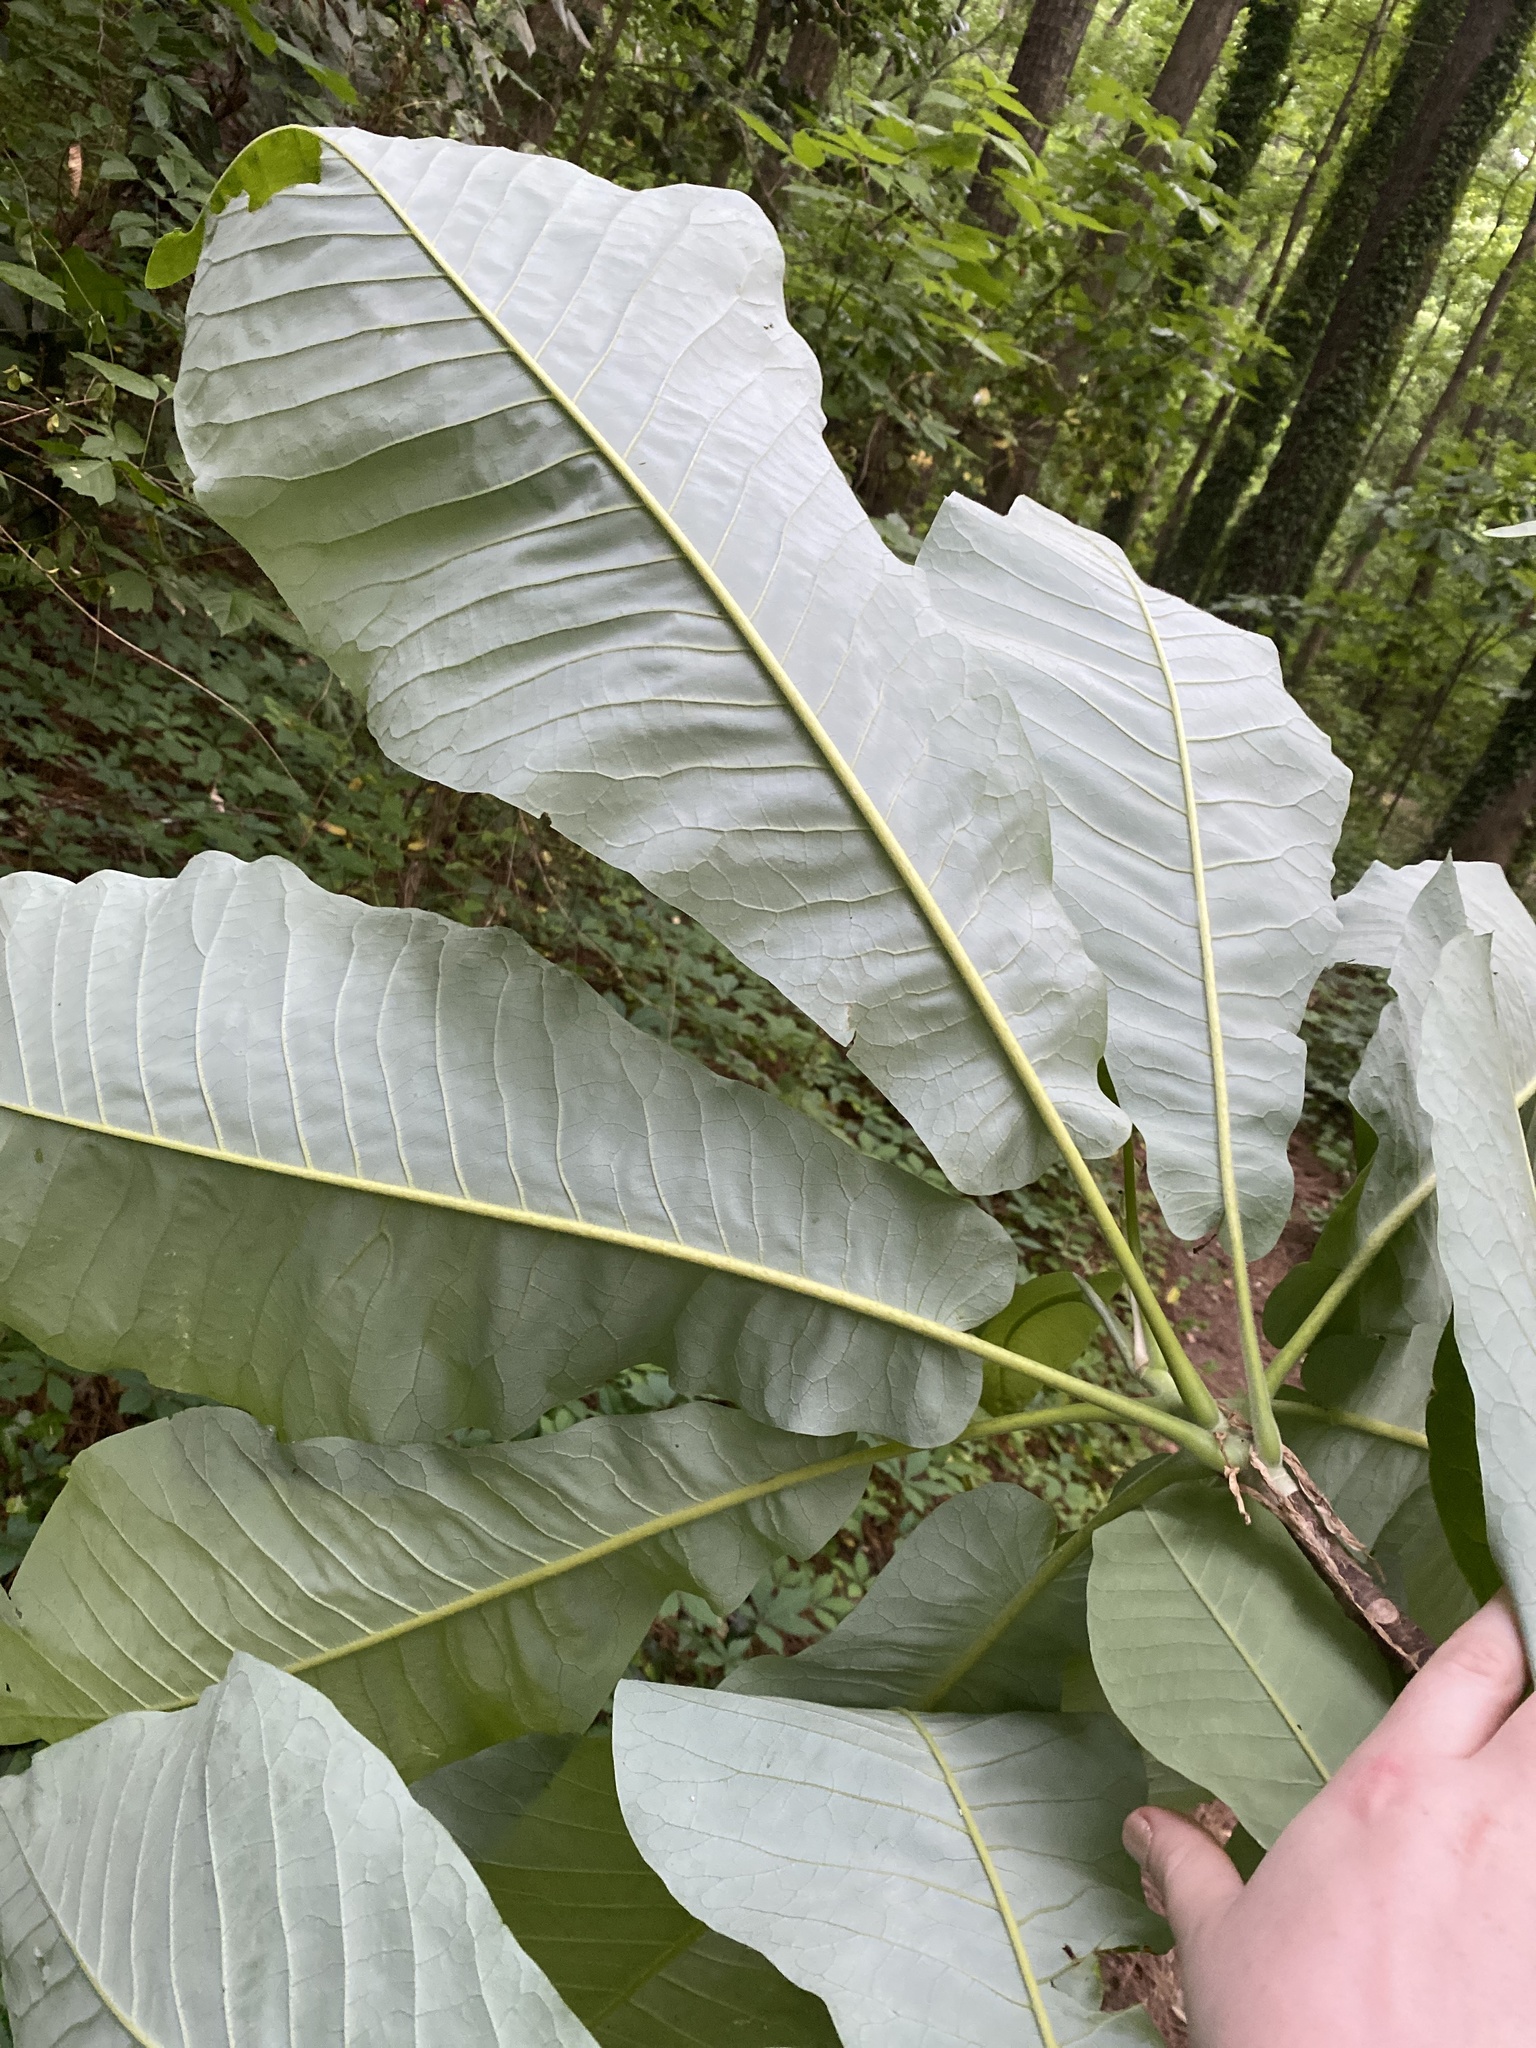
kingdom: Plantae
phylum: Tracheophyta
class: Magnoliopsida
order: Magnoliales
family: Magnoliaceae
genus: Magnolia
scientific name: Magnolia macrophylla
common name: Big-leaf magnolia
